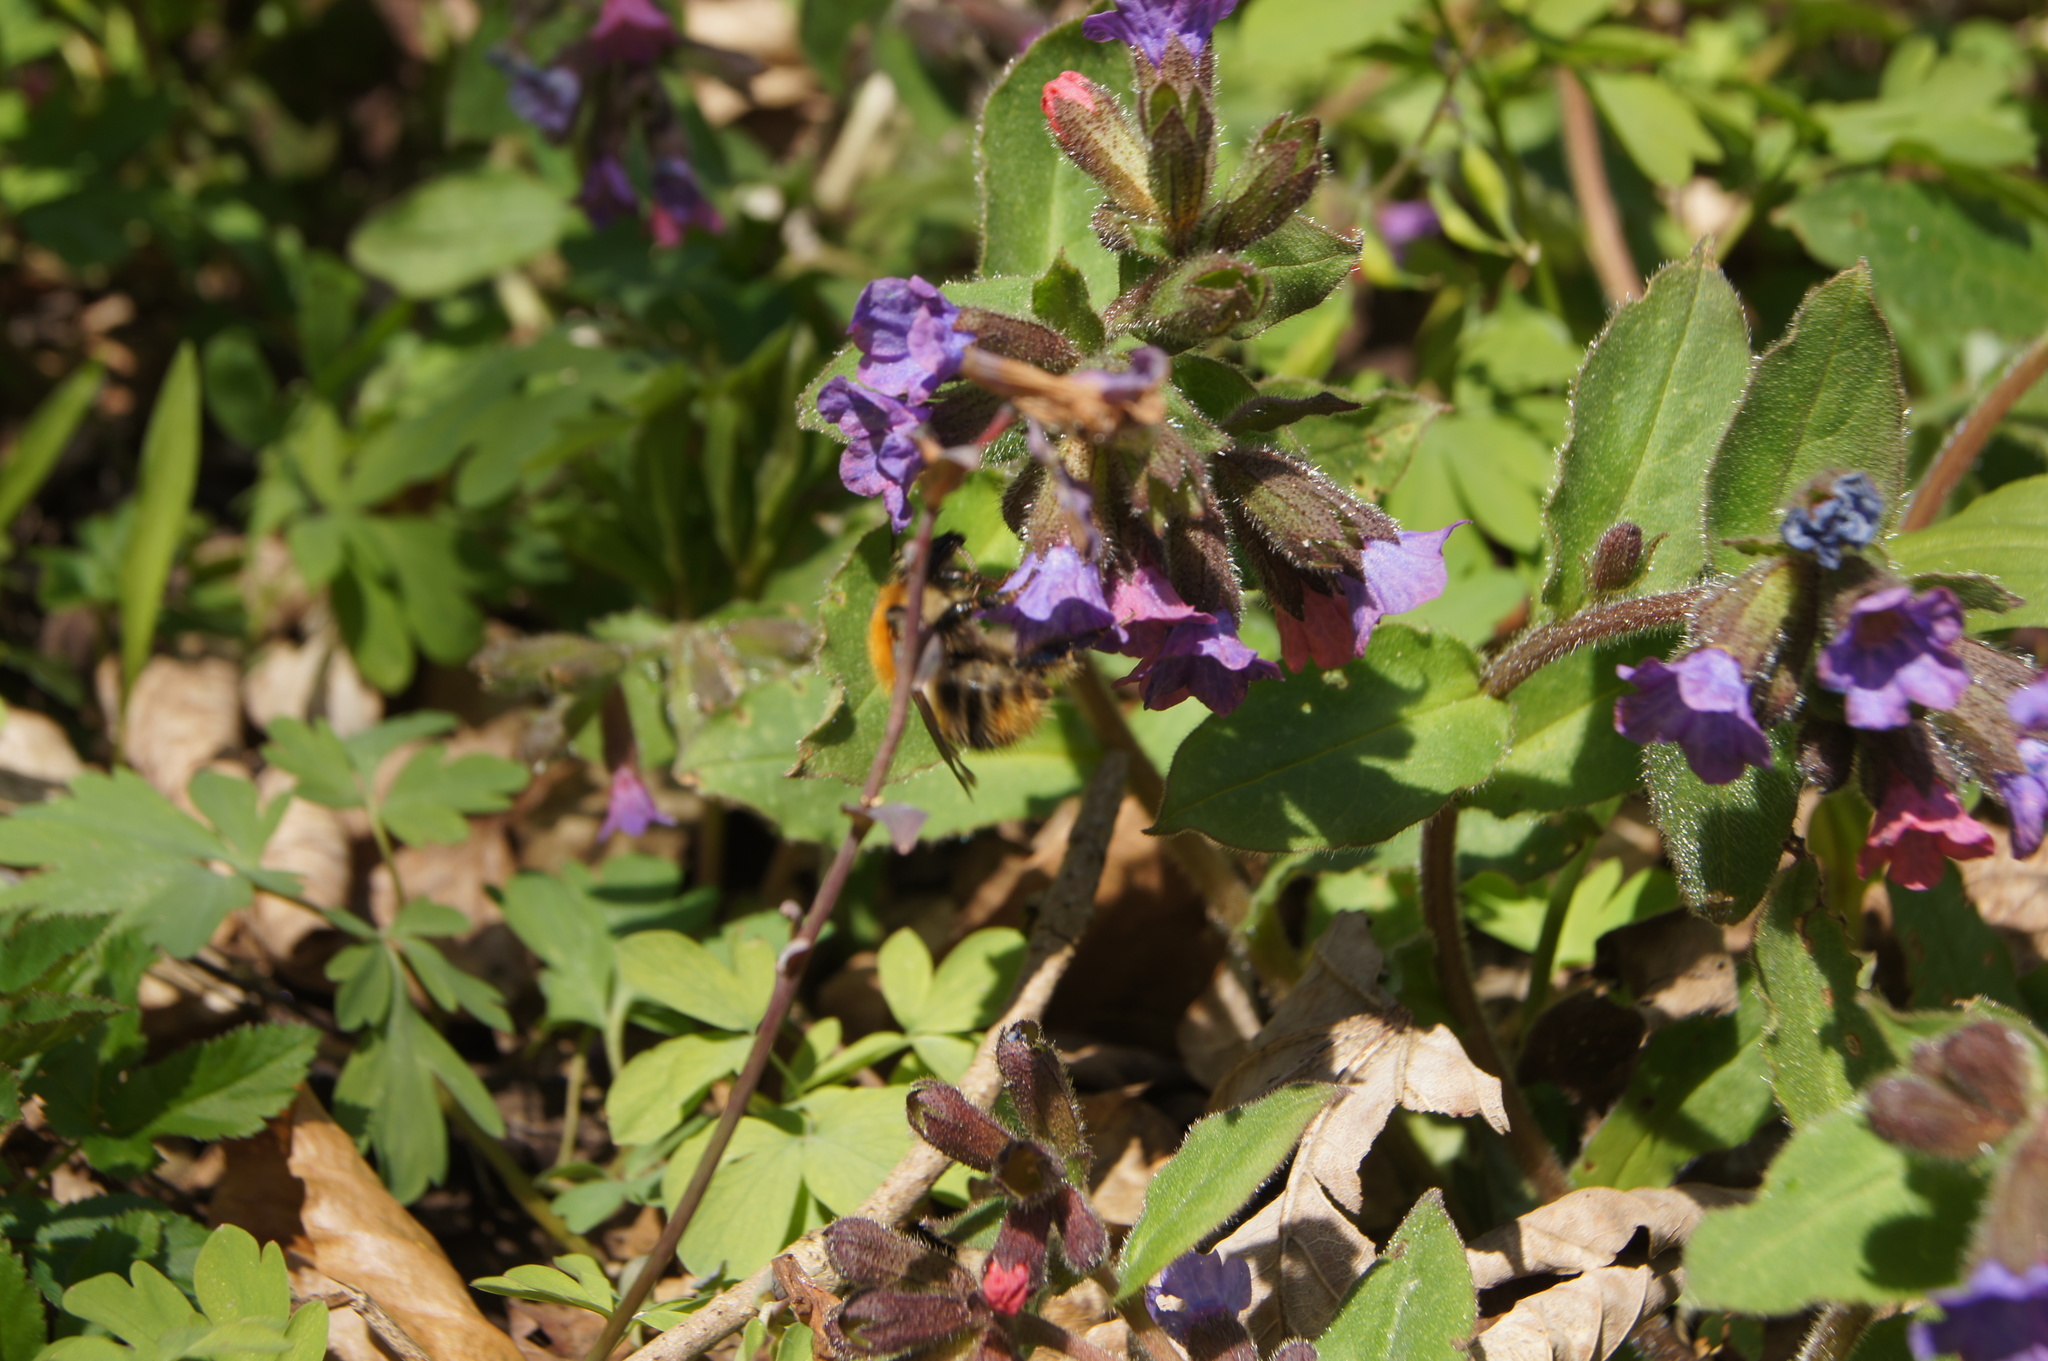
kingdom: Plantae
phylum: Tracheophyta
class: Magnoliopsida
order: Boraginales
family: Boraginaceae
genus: Pulmonaria
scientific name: Pulmonaria officinalis
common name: Lungwort
